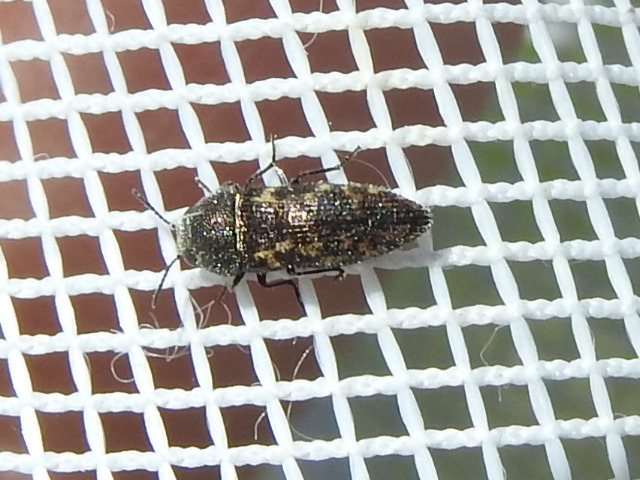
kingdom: Animalia
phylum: Arthropoda
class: Insecta
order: Coleoptera
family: Buprestidae
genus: Acmaeodera
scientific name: Acmaeodera neglecta
